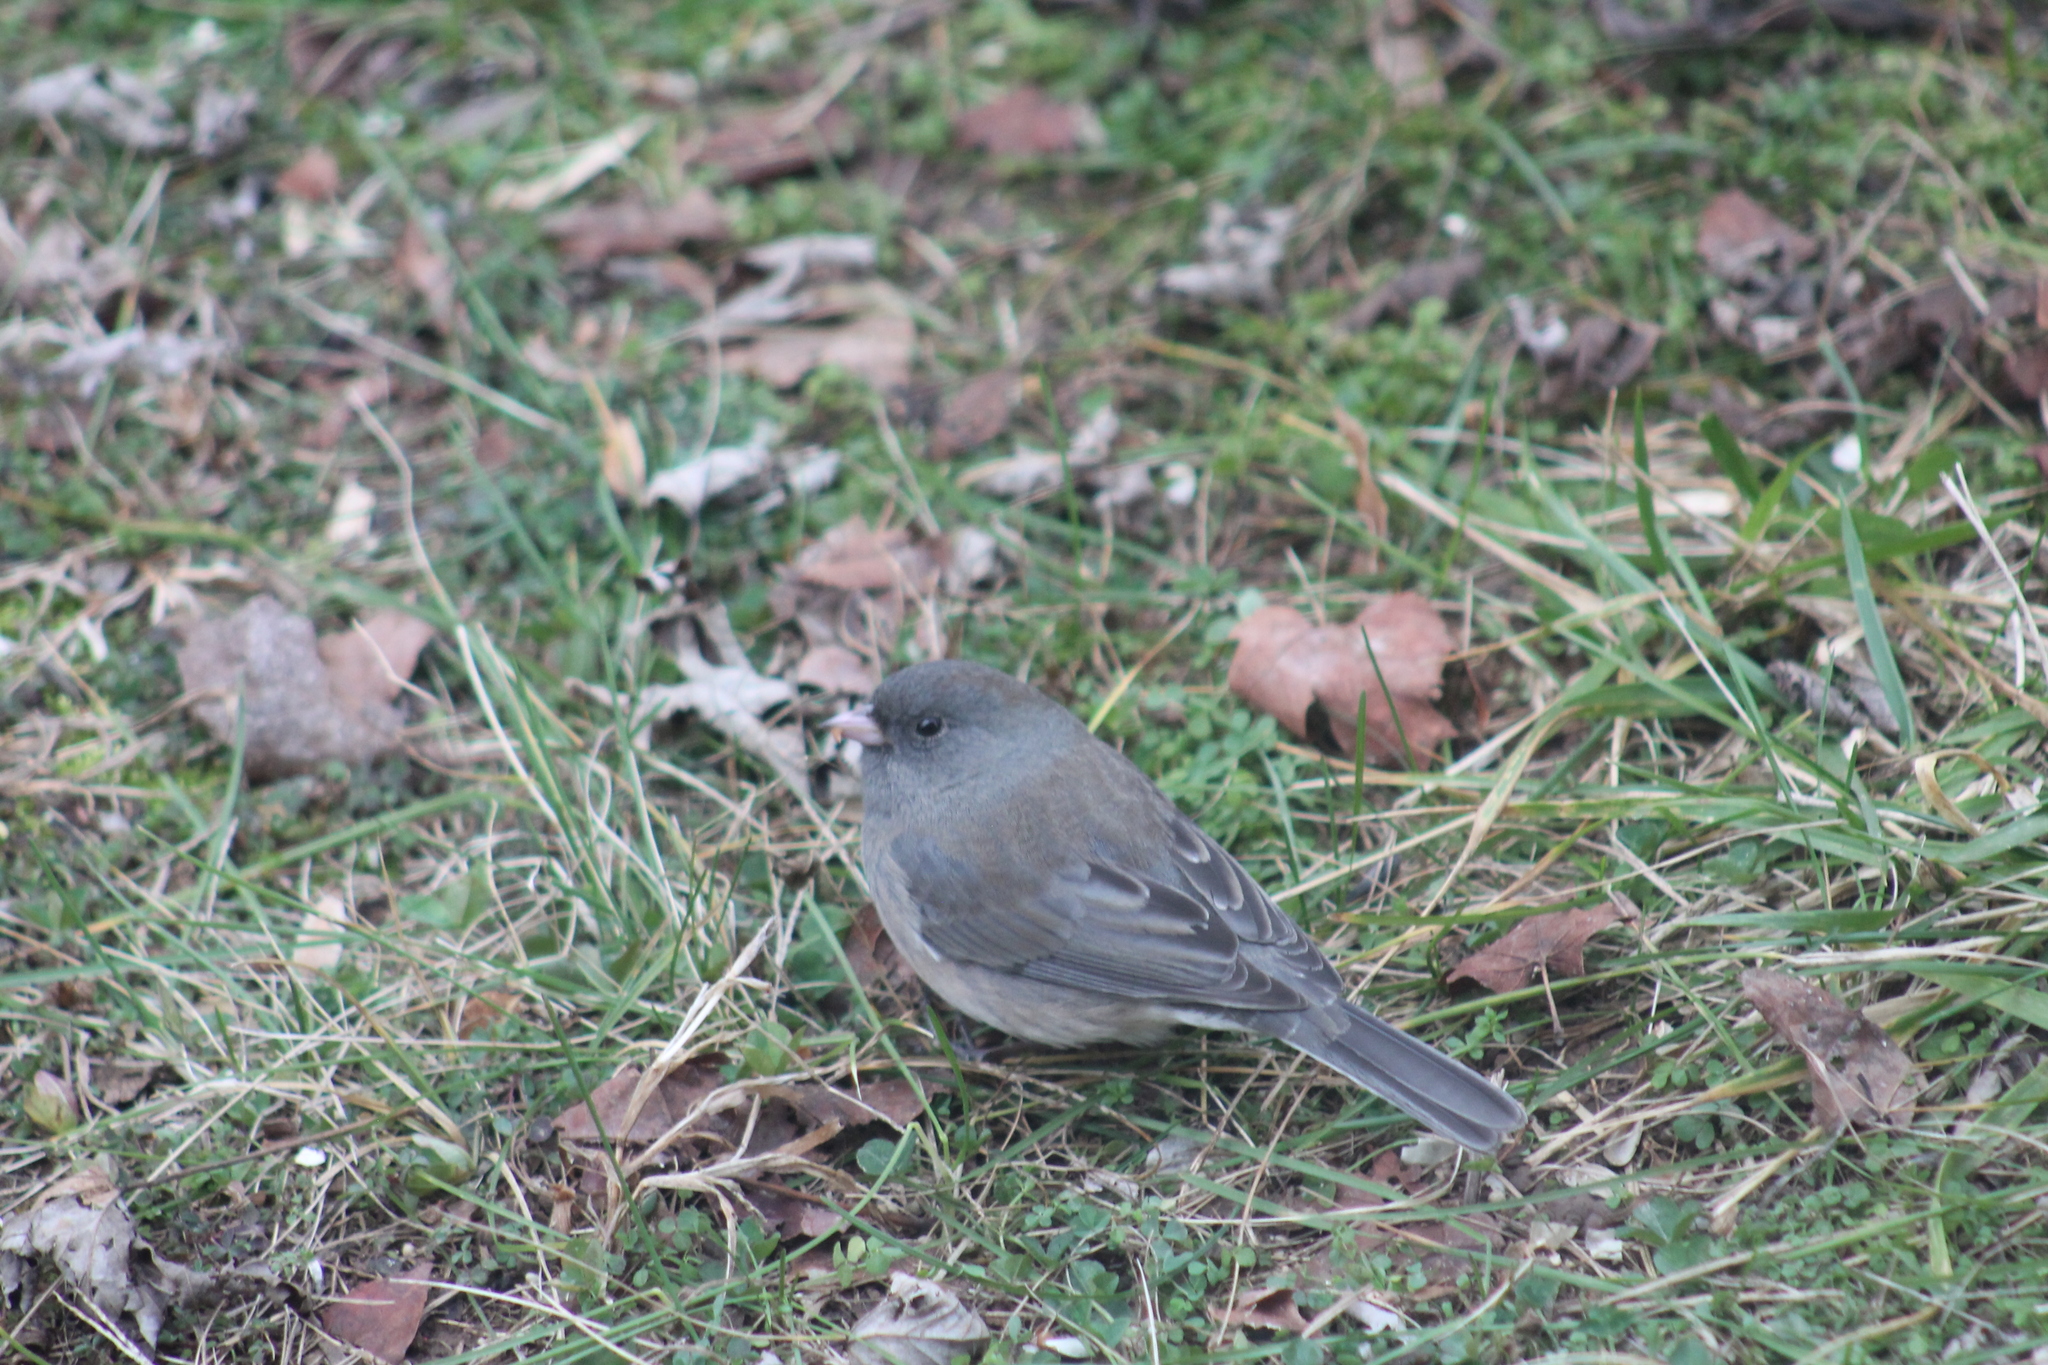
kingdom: Animalia
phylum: Chordata
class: Aves
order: Passeriformes
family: Passerellidae
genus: Junco
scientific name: Junco hyemalis
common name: Dark-eyed junco
